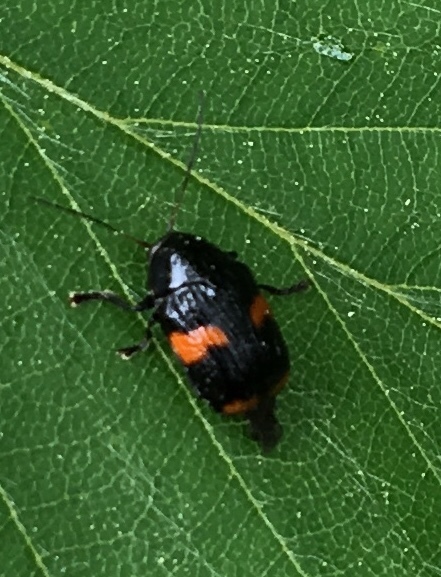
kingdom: Animalia
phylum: Arthropoda
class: Insecta
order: Coleoptera
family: Chrysomelidae
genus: Bassareus
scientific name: Bassareus mammifer
